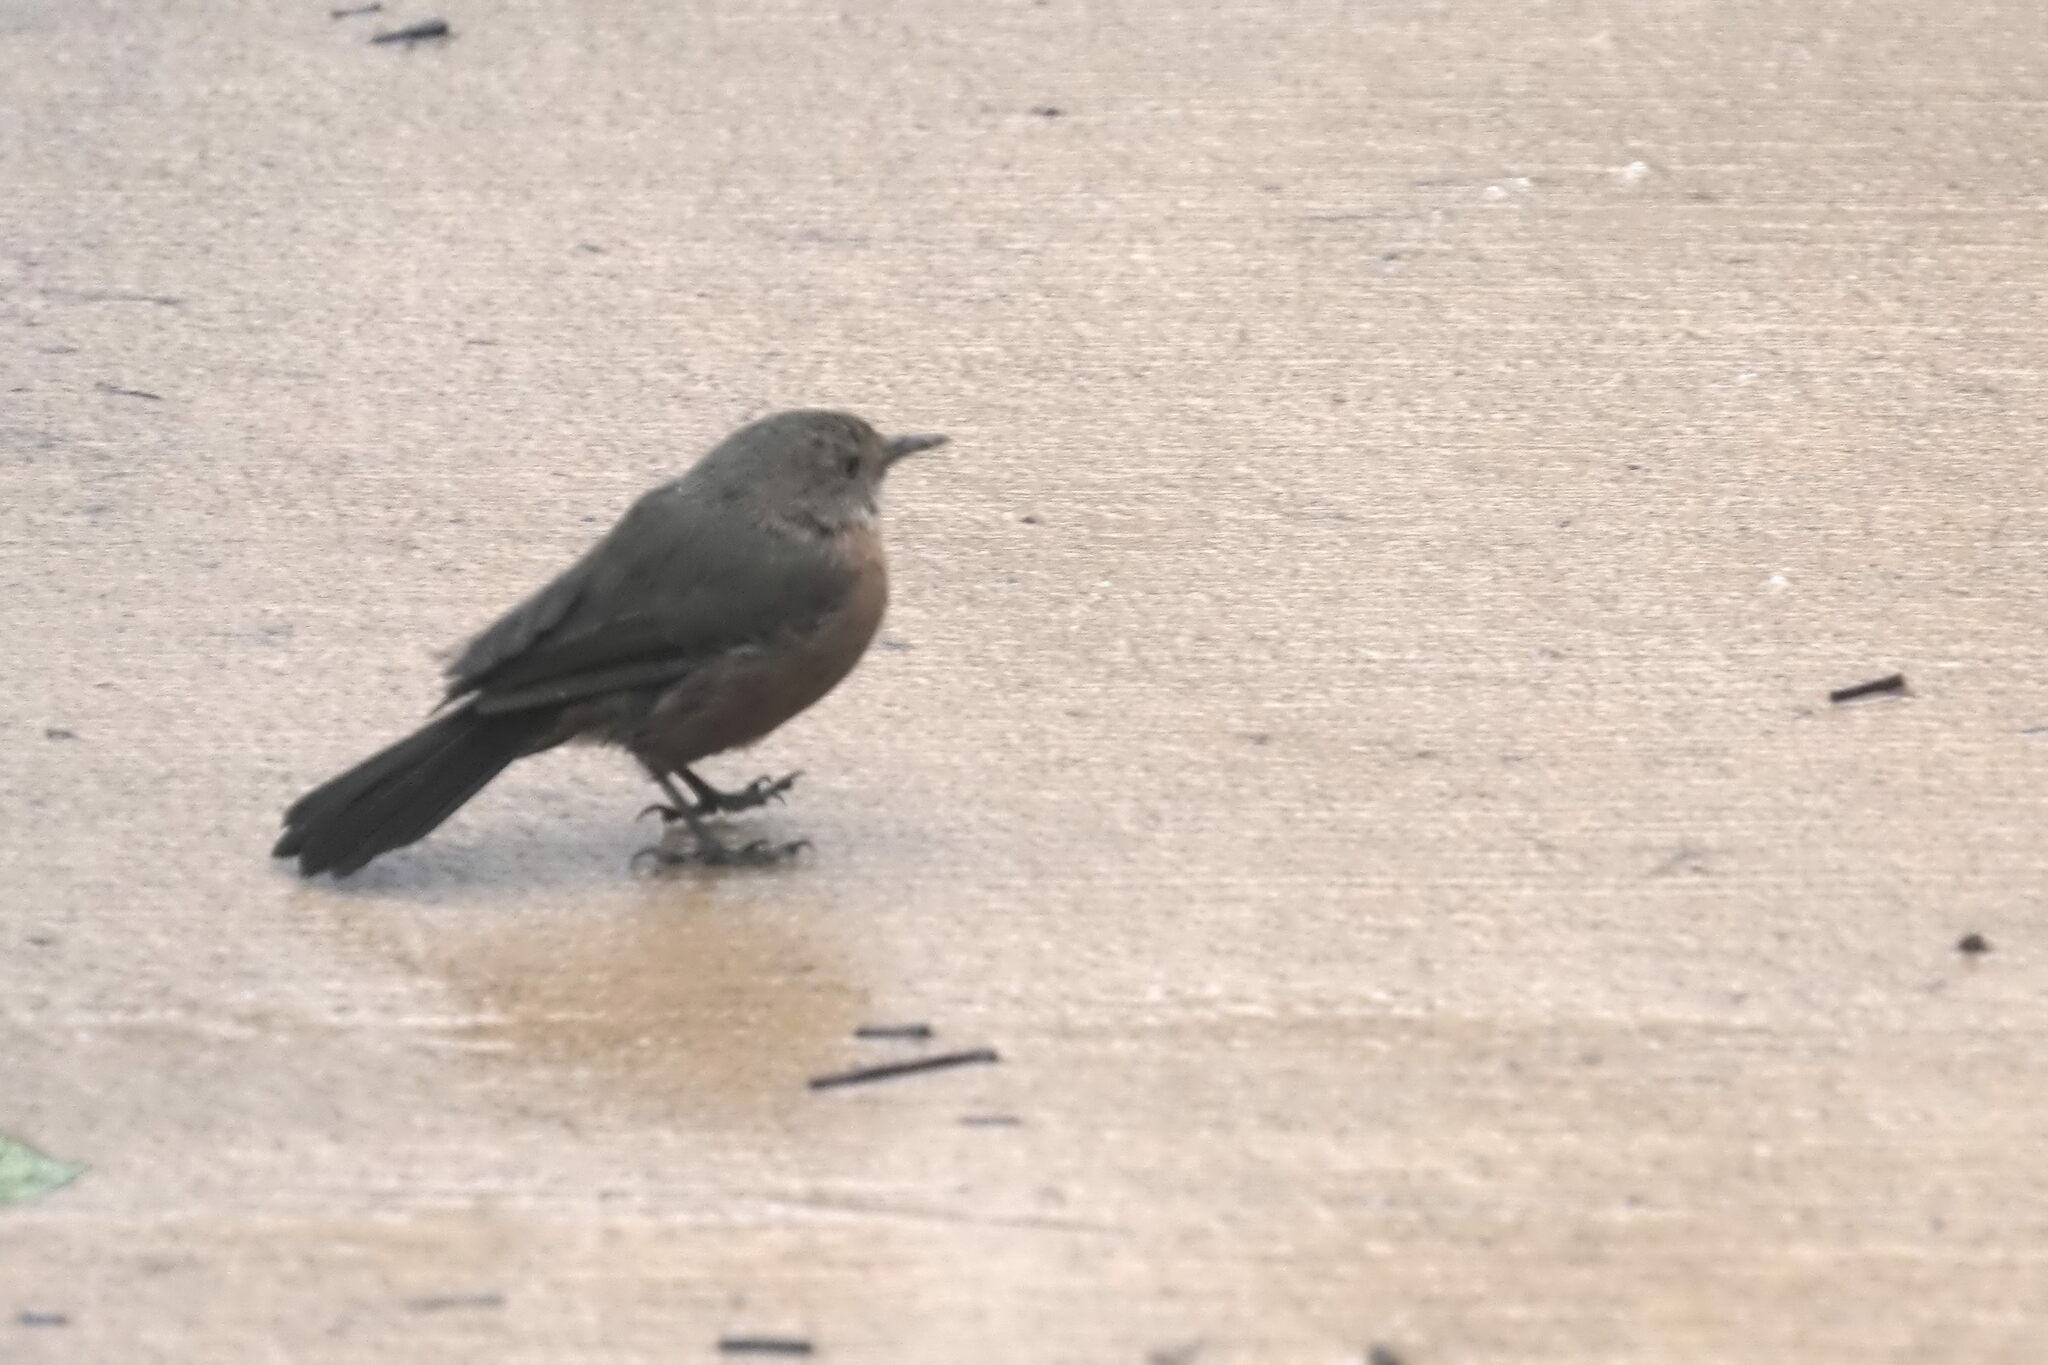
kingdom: Animalia
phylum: Chordata
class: Aves
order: Passeriformes
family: Acanthizidae
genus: Origma
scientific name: Origma solitaria
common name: Rockwarbler
